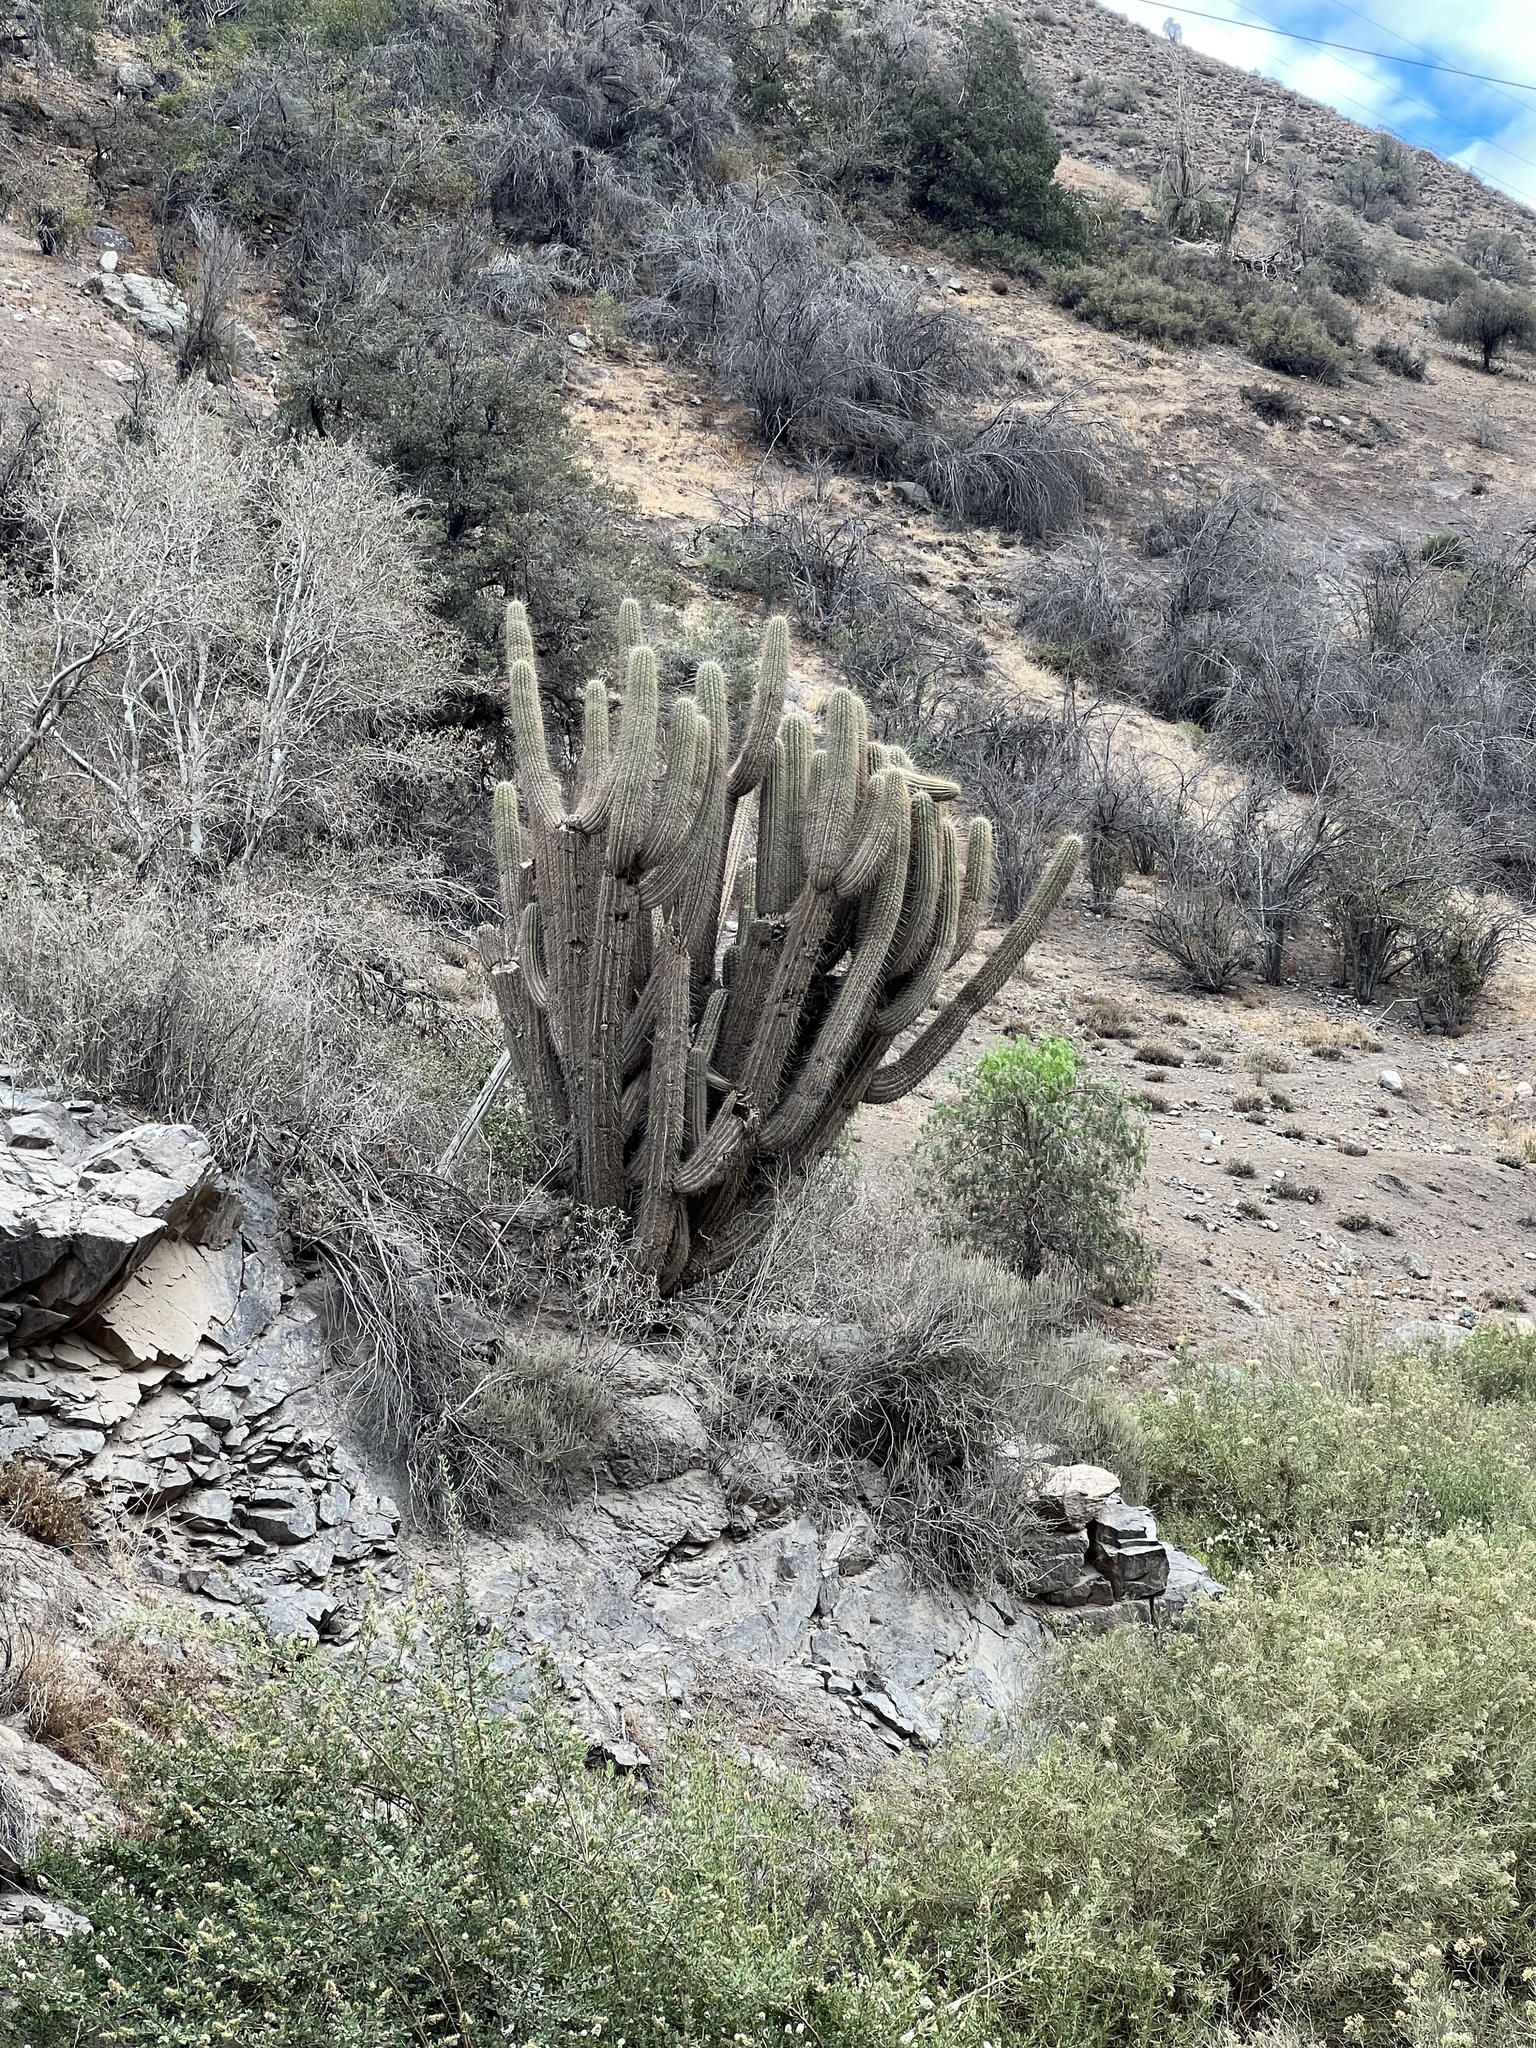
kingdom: Plantae
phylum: Tracheophyta
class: Magnoliopsida
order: Caryophyllales
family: Cactaceae
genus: Leucostele
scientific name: Leucostele chiloensis
